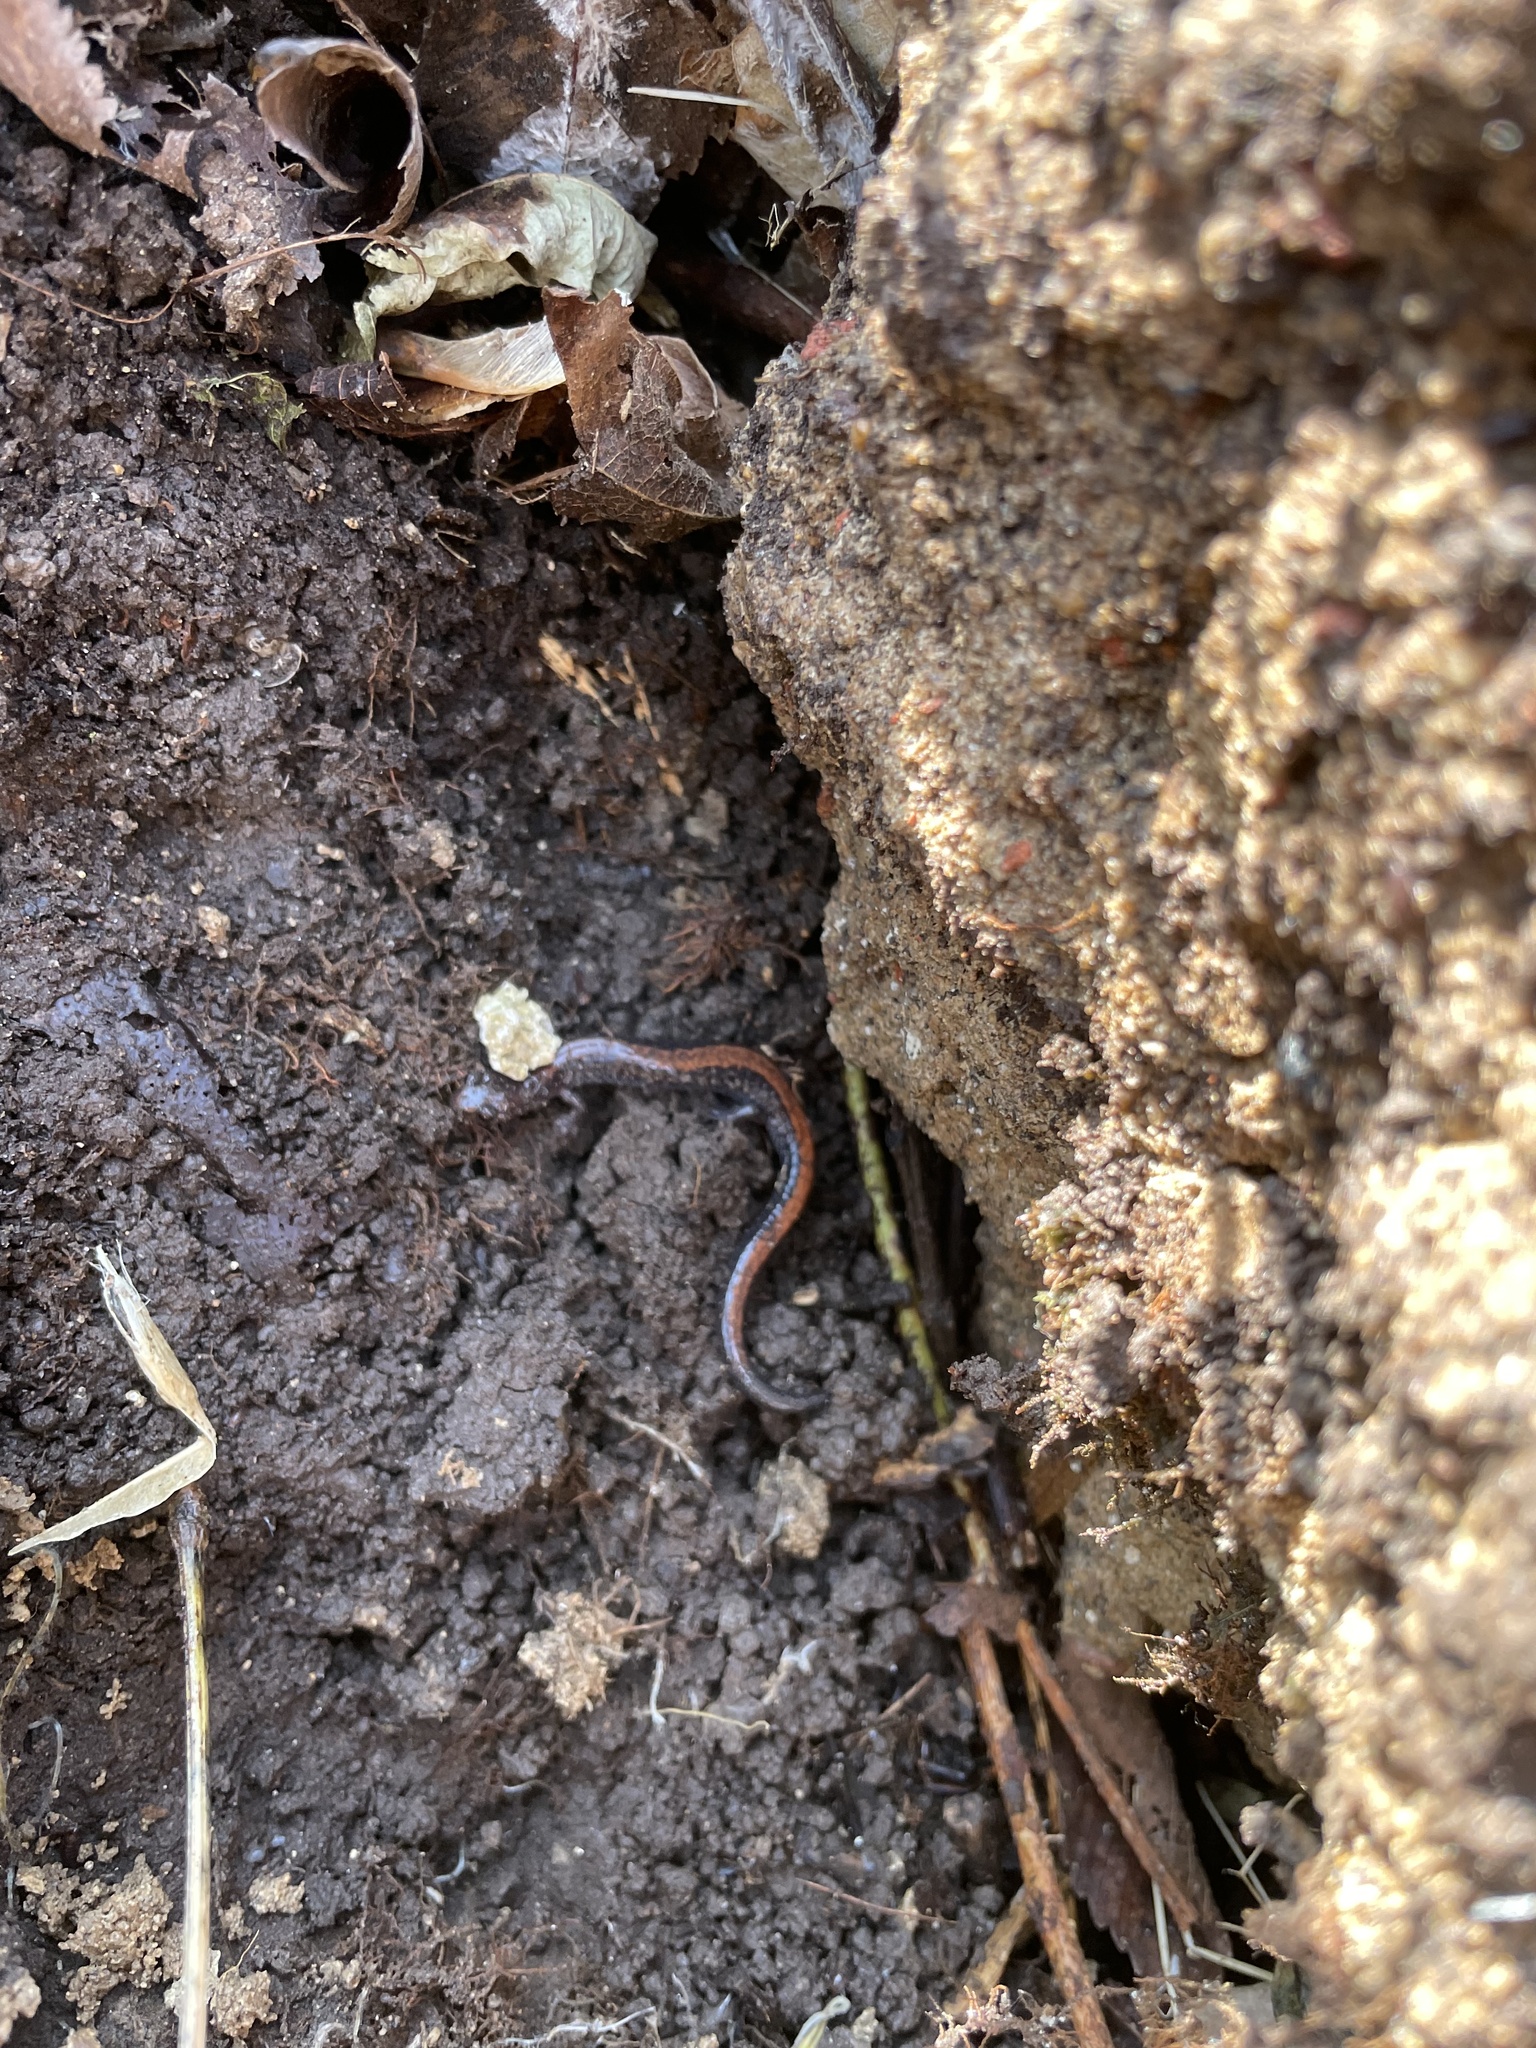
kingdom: Animalia
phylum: Chordata
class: Amphibia
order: Caudata
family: Plethodontidae
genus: Plethodon
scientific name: Plethodon cinereus
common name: Redback salamander
